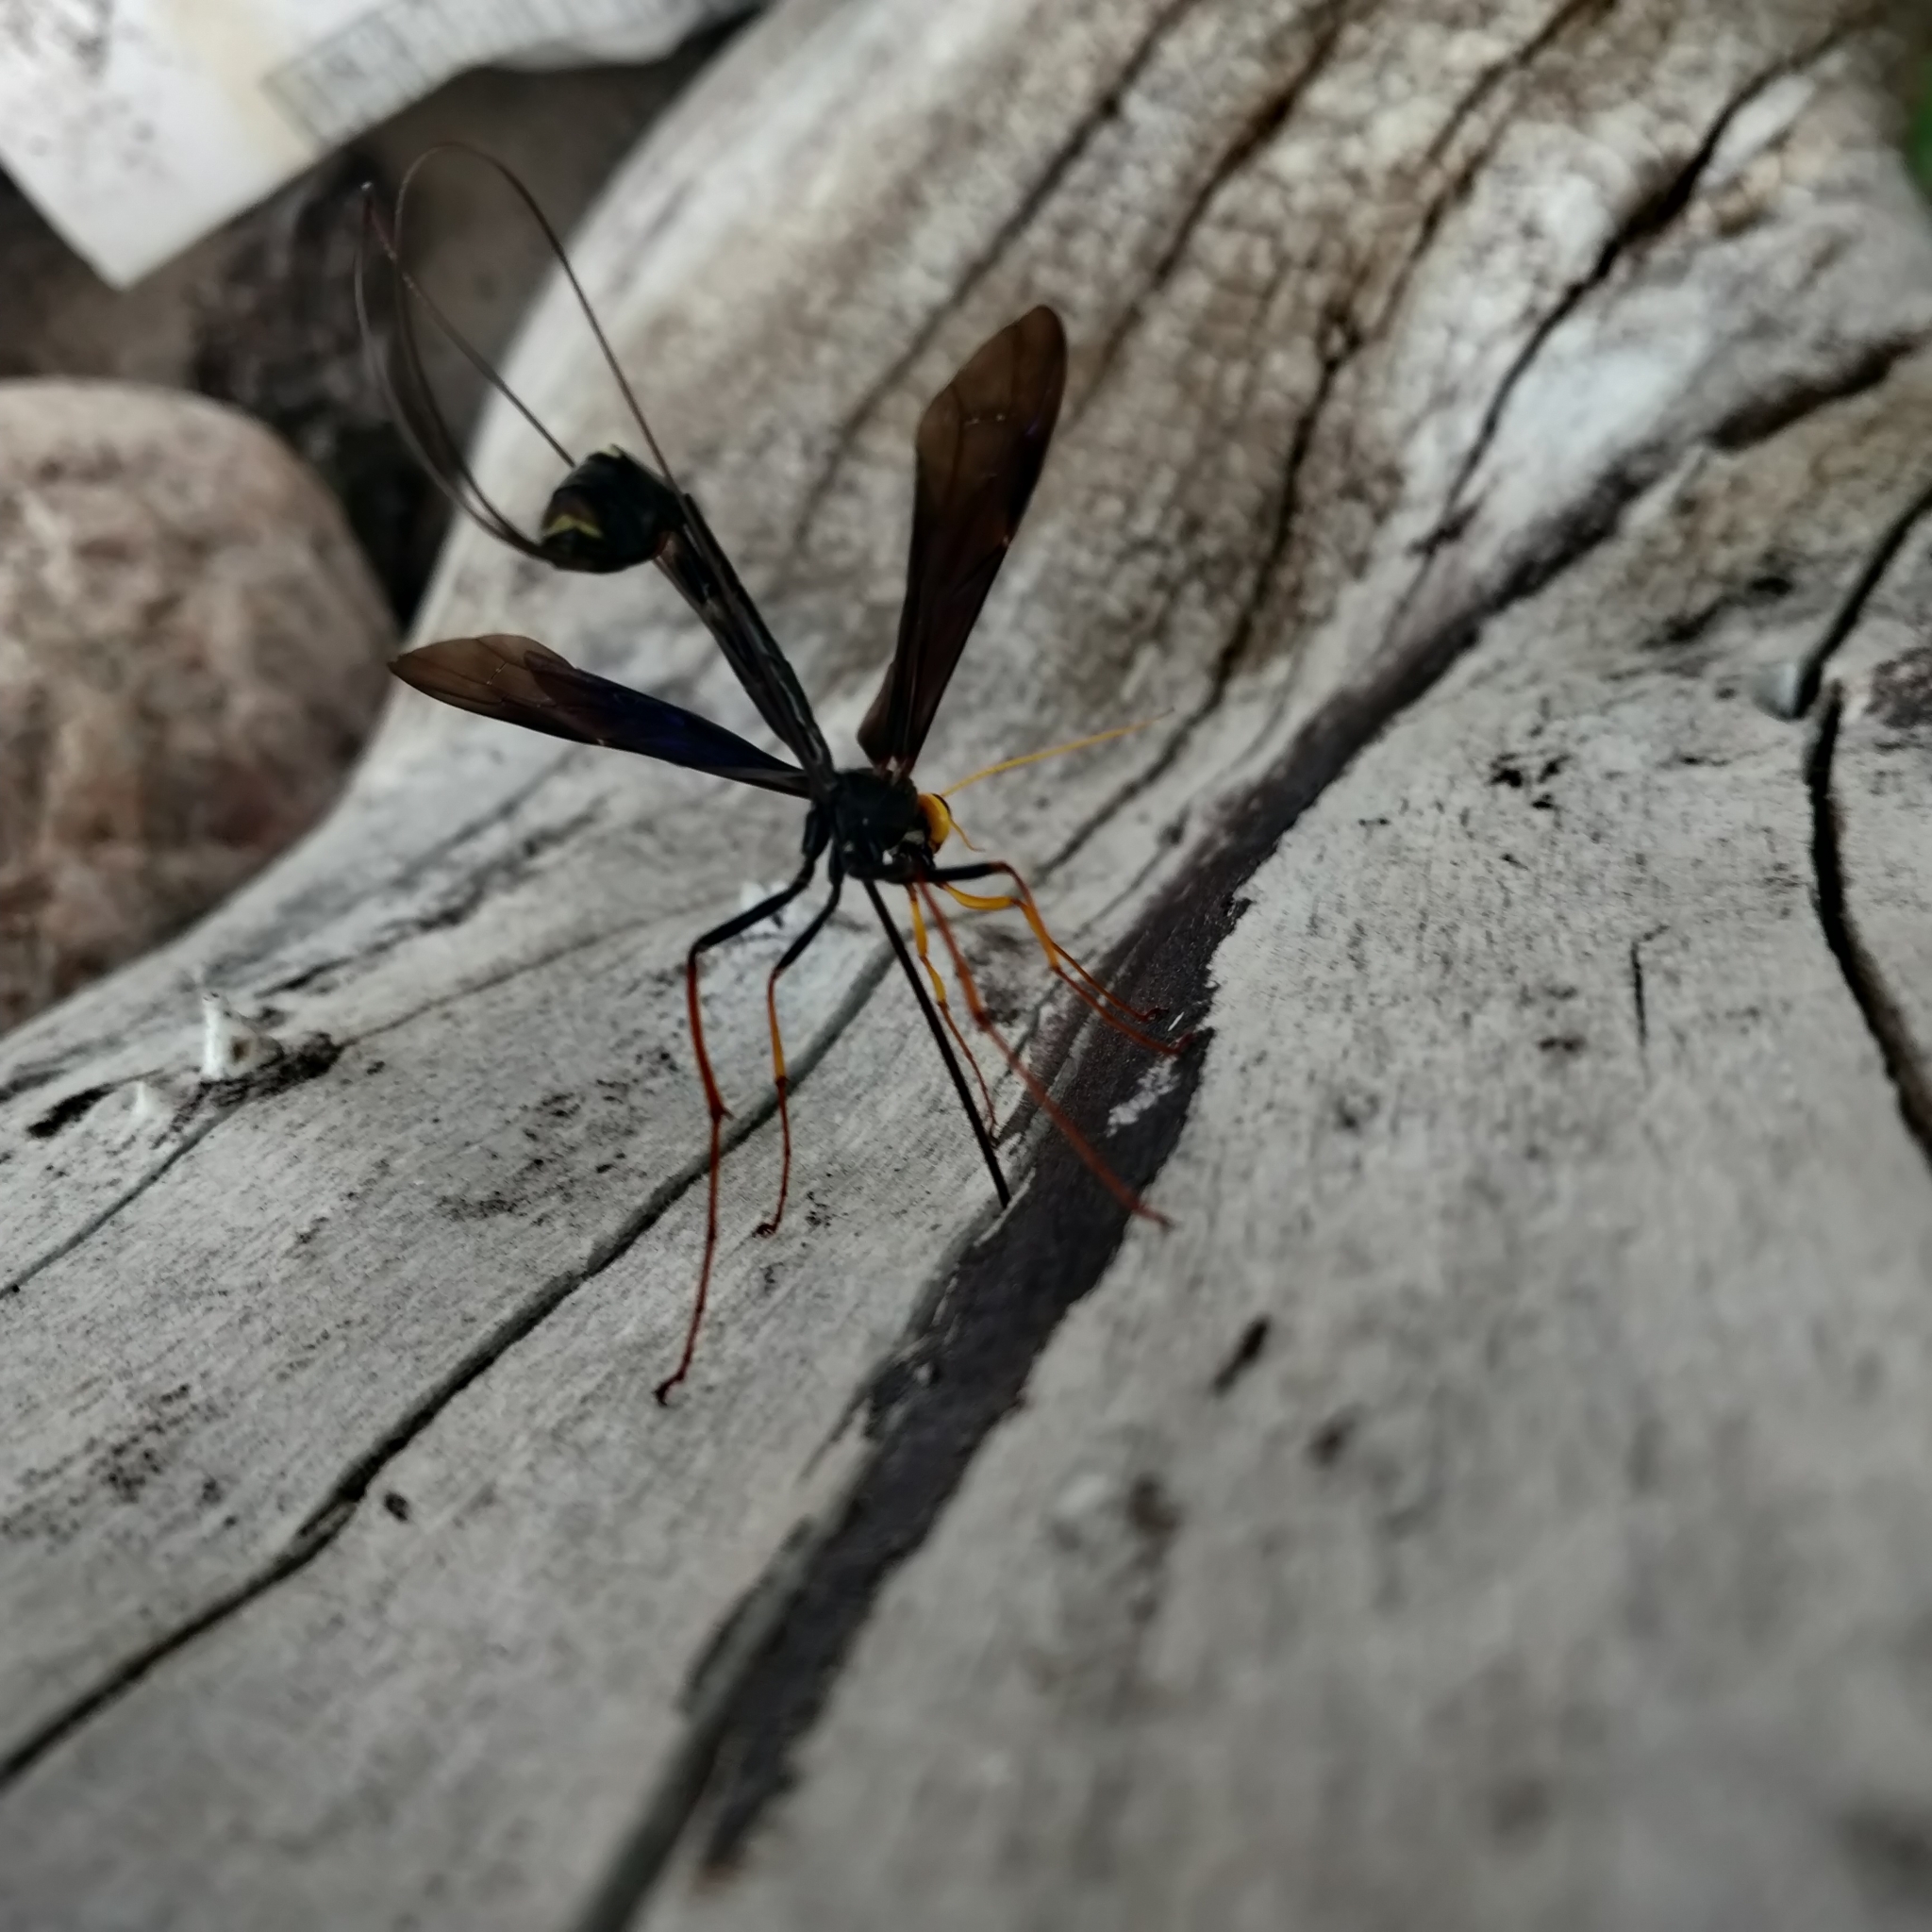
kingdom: Animalia
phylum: Arthropoda
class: Insecta
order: Hymenoptera
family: Ichneumonidae
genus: Megarhyssa
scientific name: Megarhyssa atrata
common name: Black giant ichneumonid wasp
